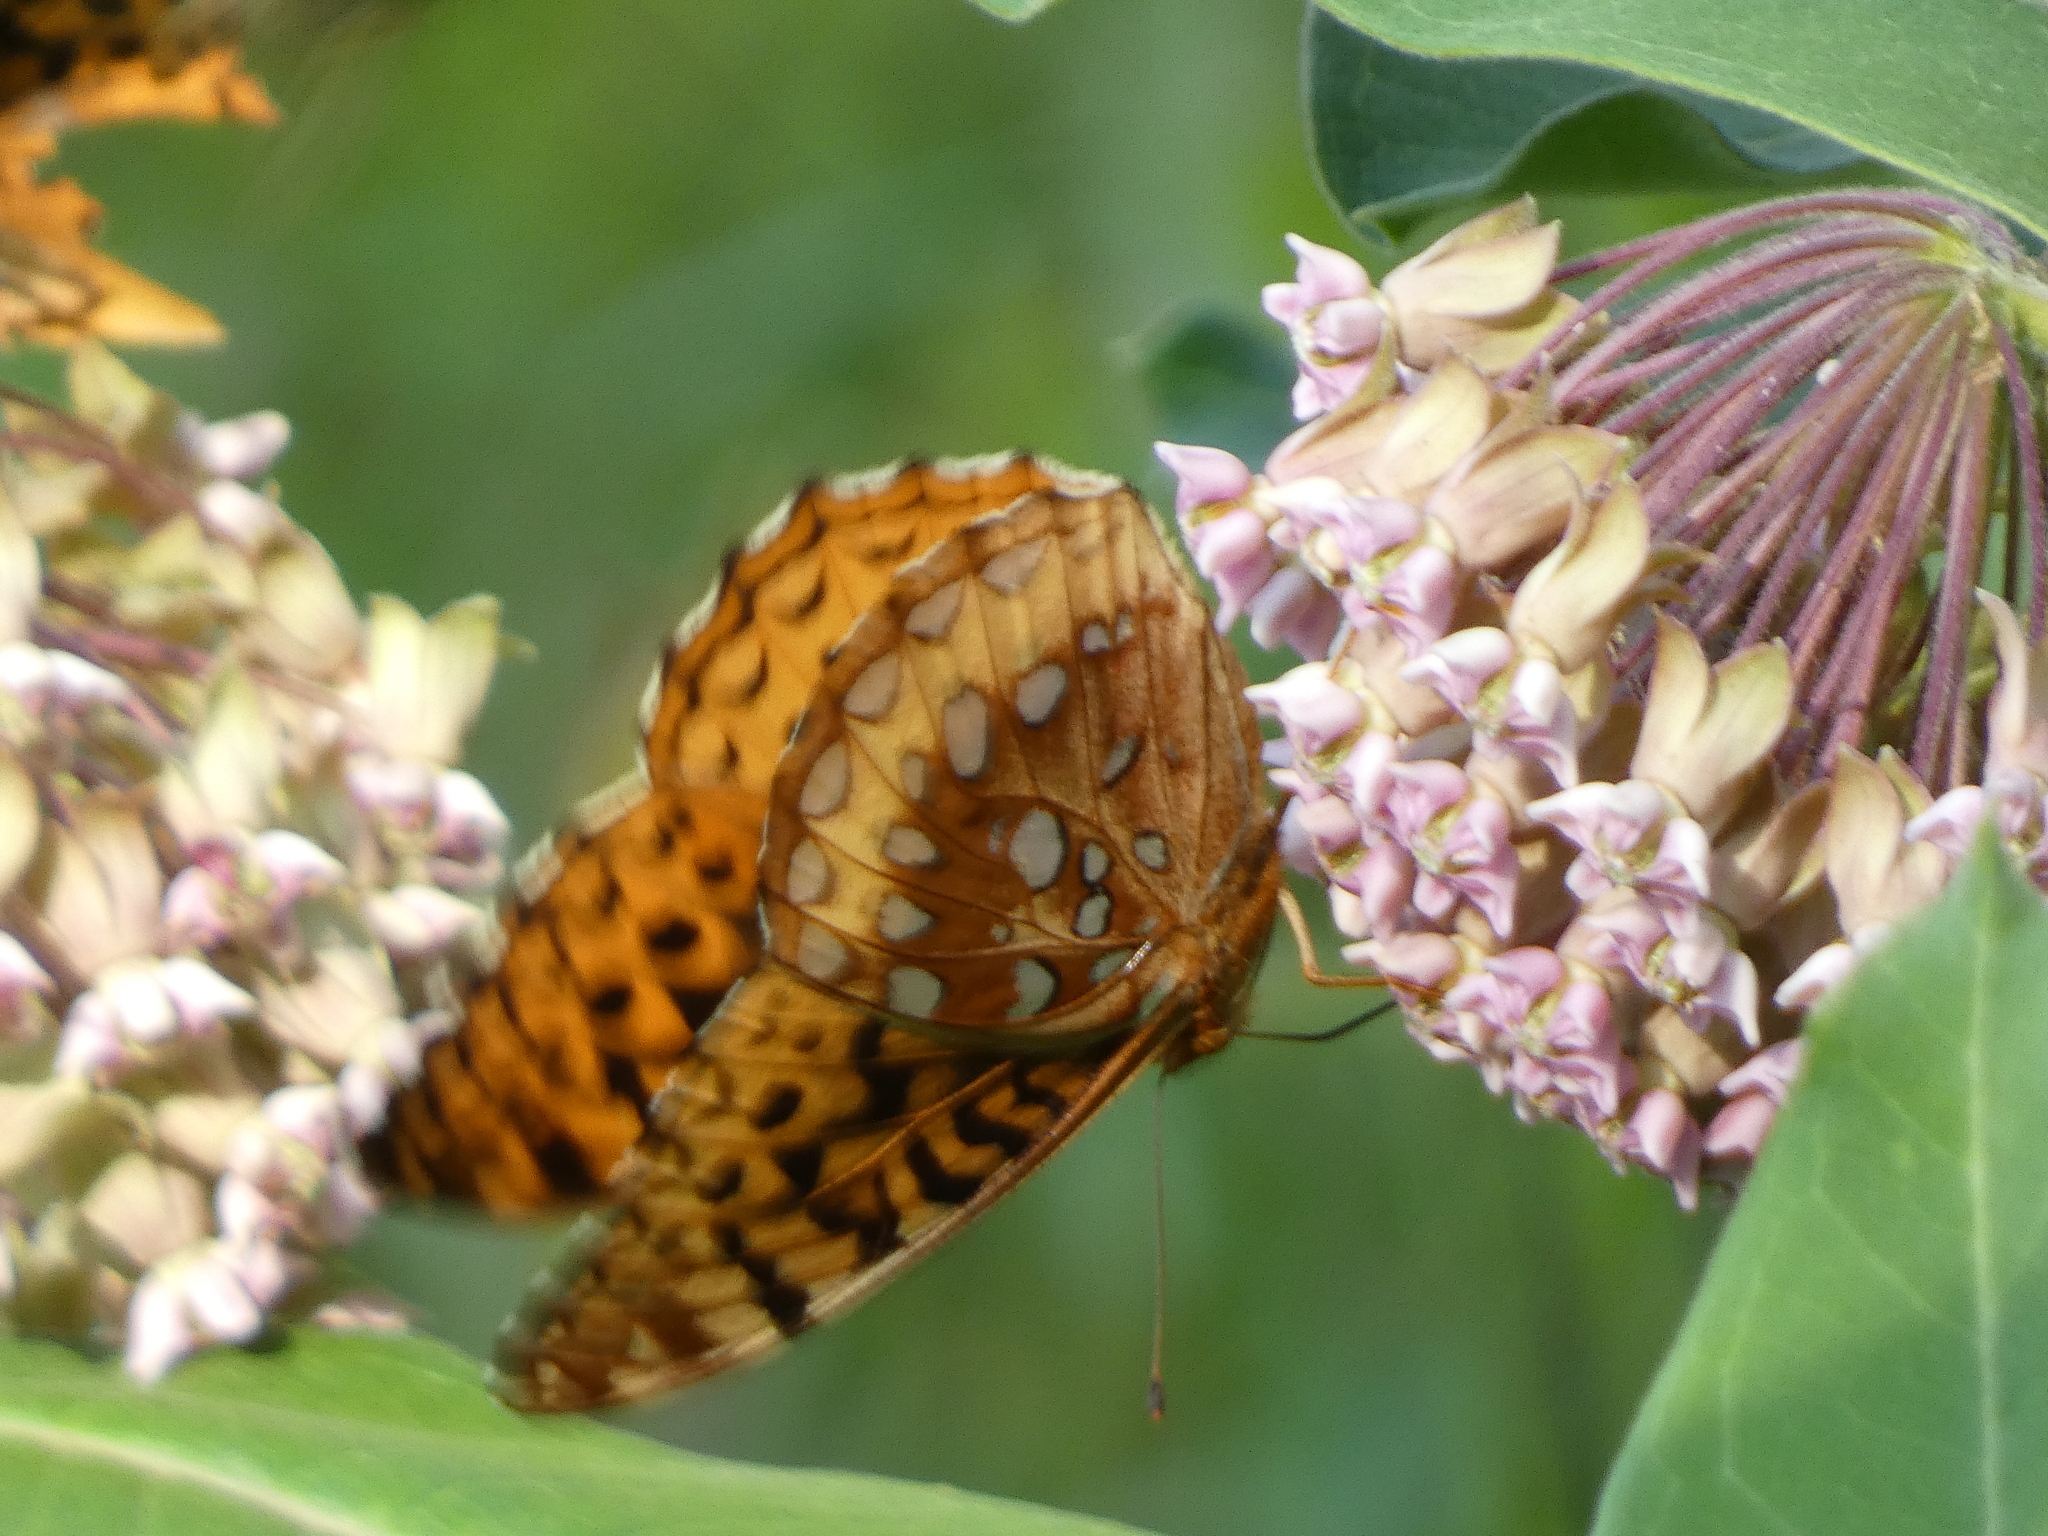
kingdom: Animalia
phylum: Arthropoda
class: Insecta
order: Lepidoptera
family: Nymphalidae
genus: Speyeria
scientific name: Speyeria cybele
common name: Great spangled fritillary
